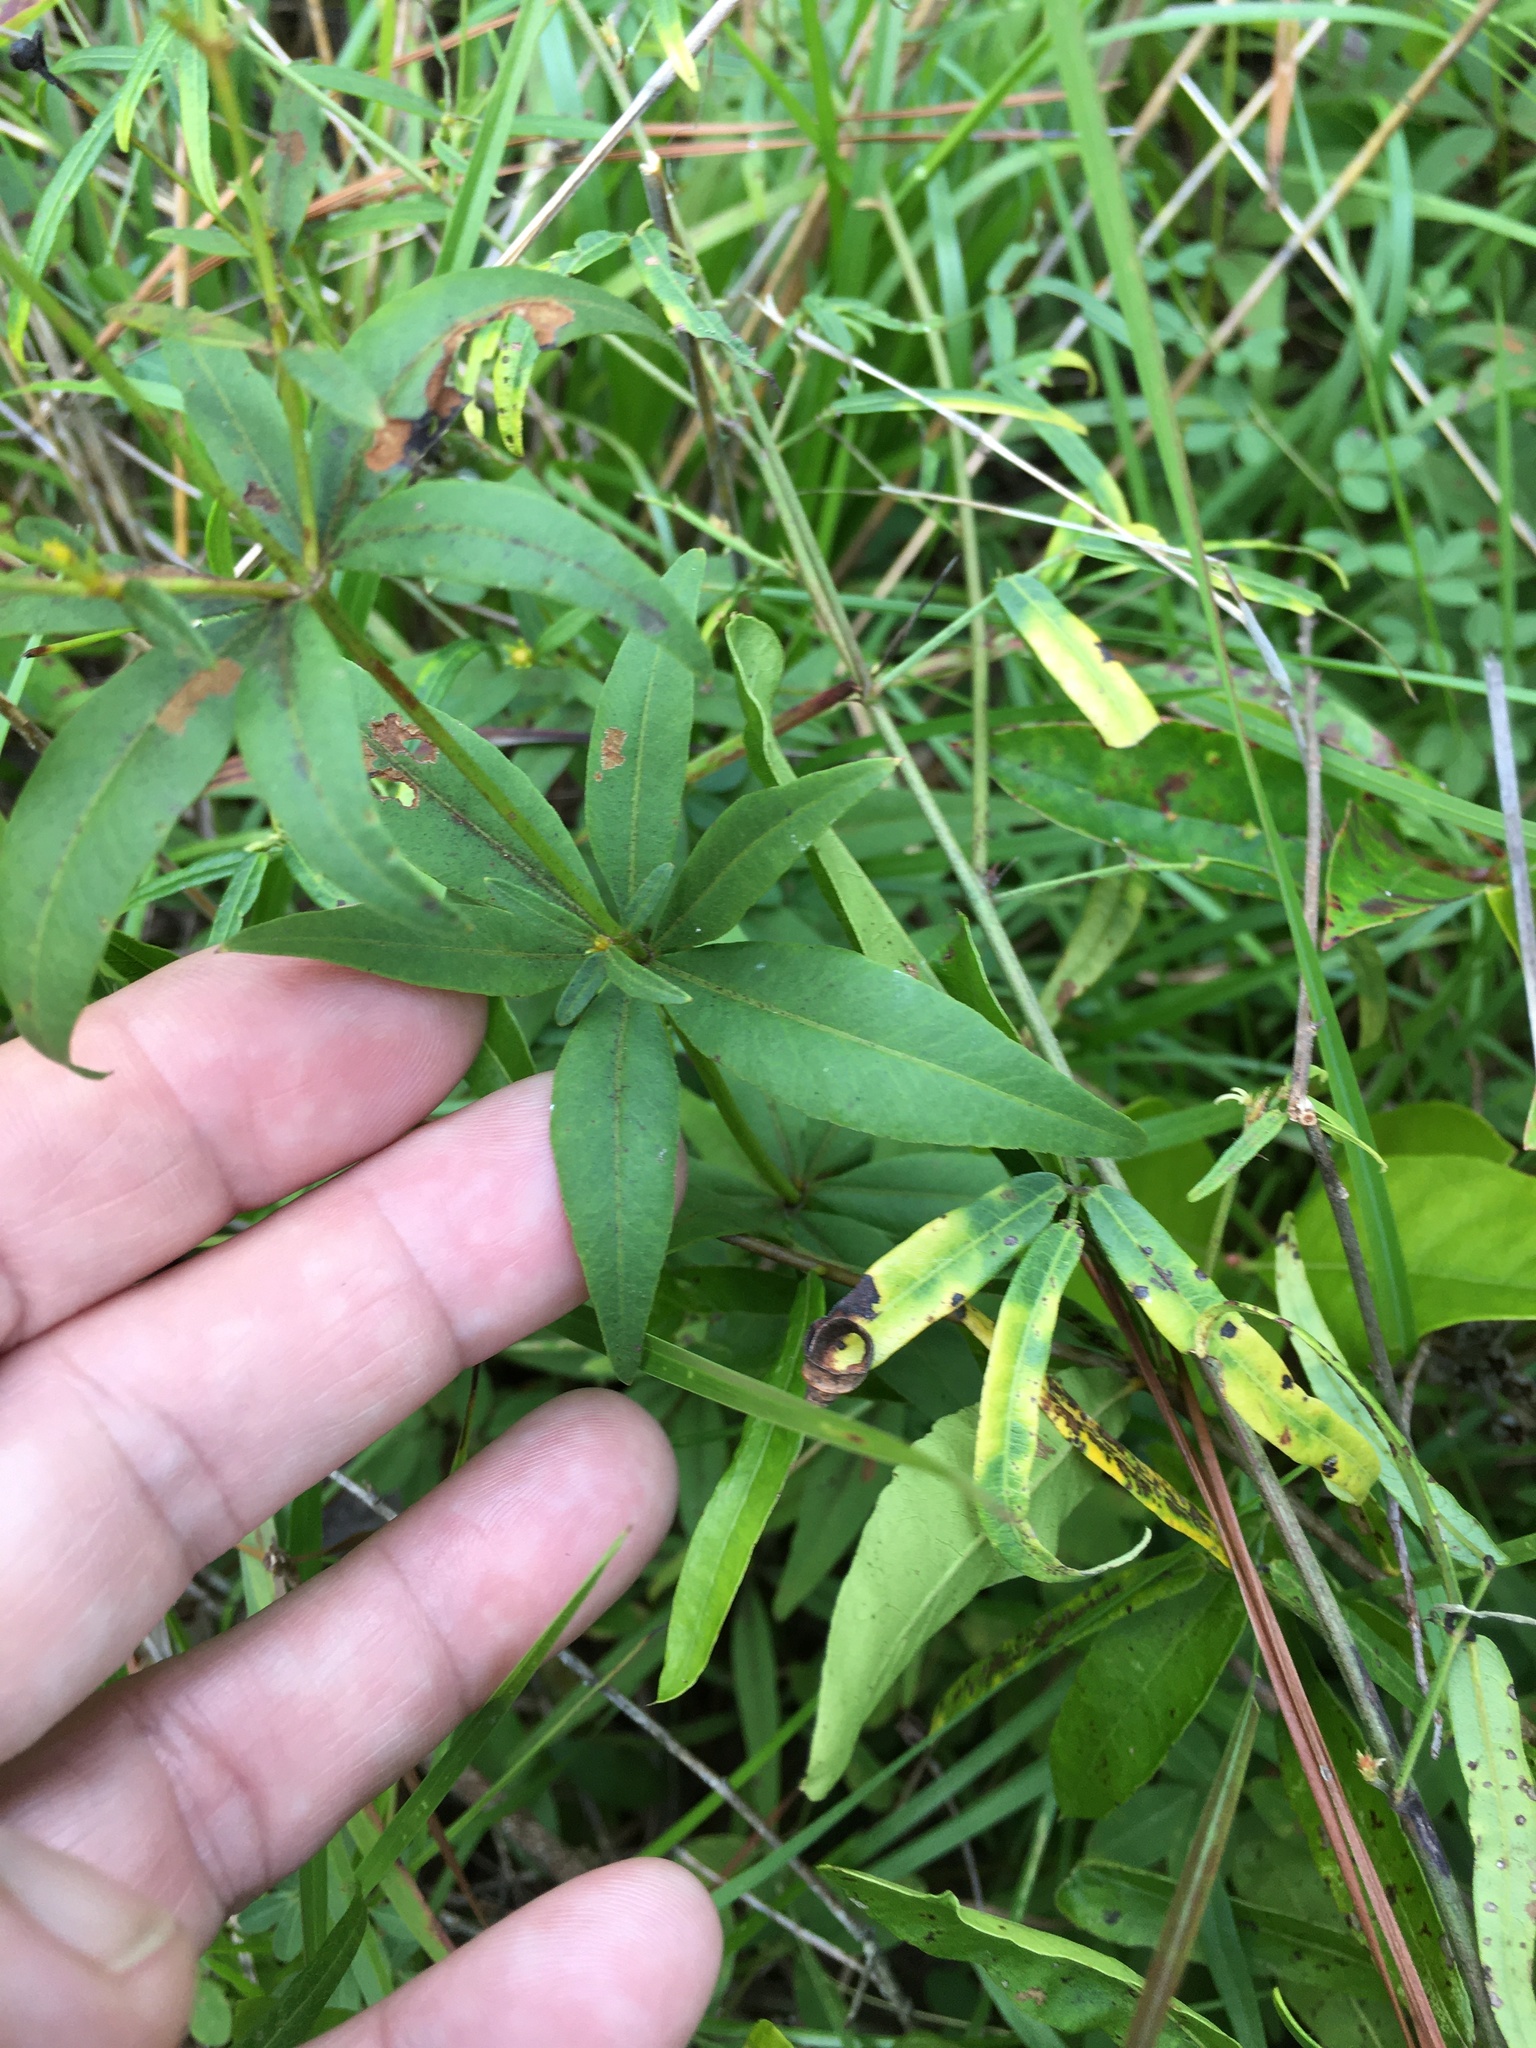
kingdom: Plantae
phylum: Tracheophyta
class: Magnoliopsida
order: Asterales
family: Asteraceae
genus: Coreopsis
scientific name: Coreopsis major
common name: Forest tickseed
